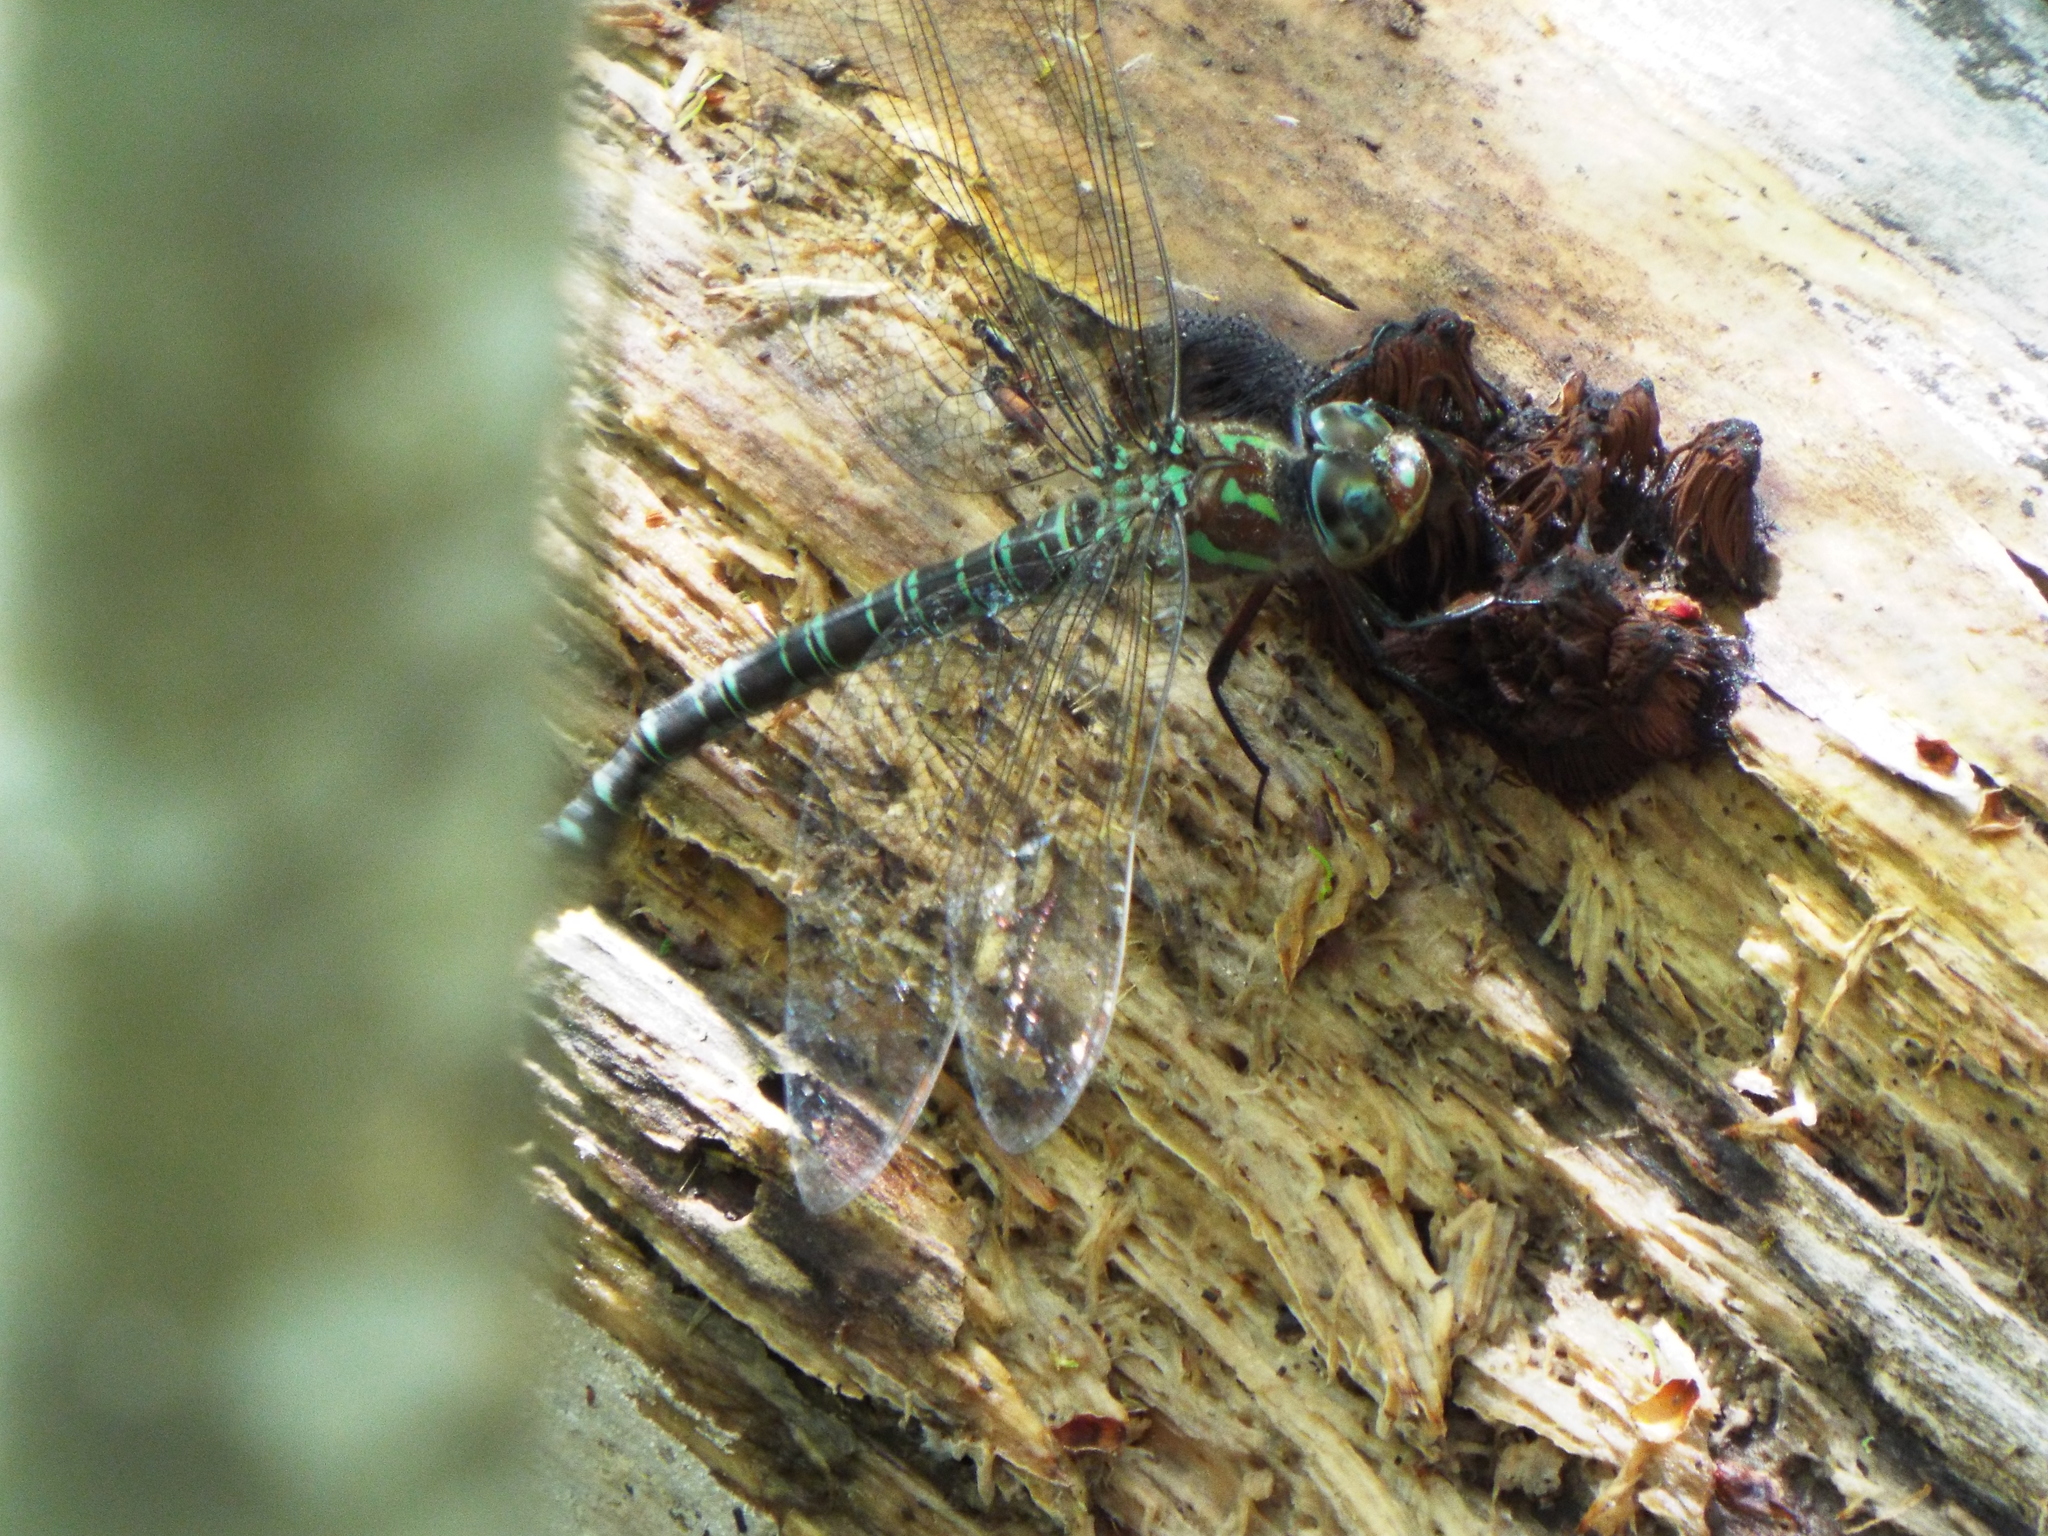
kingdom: Animalia
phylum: Arthropoda
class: Insecta
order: Odonata
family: Aeshnidae
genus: Epiaeschna
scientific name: Epiaeschna heros
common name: Swamp darner
